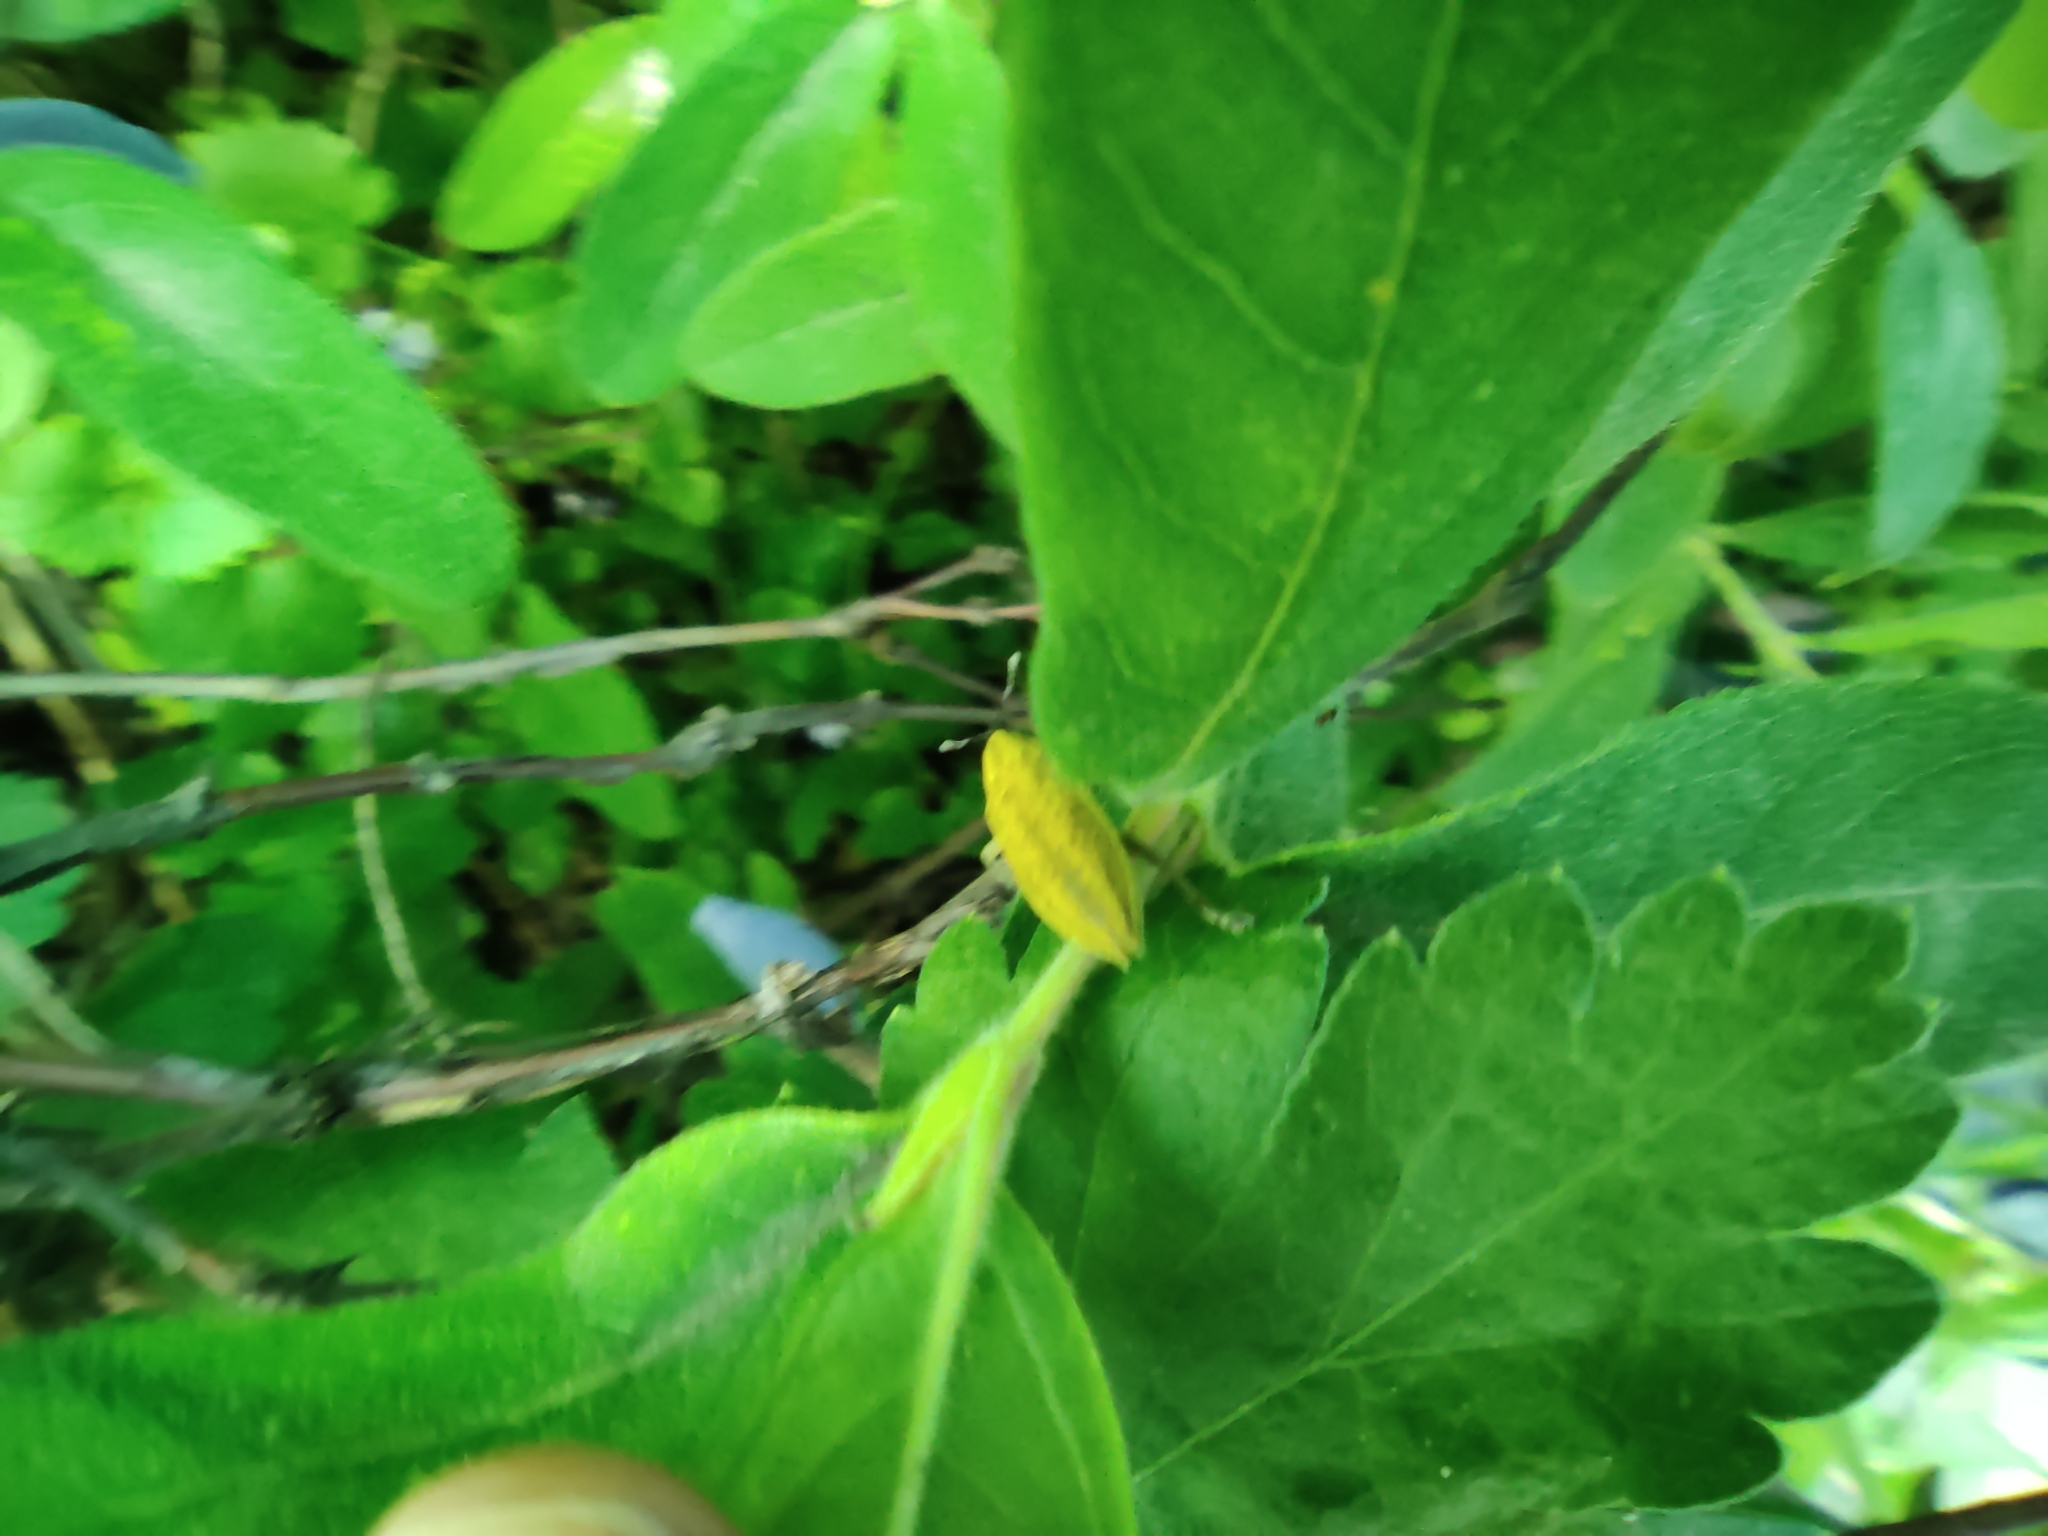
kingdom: Animalia
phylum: Arthropoda
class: Insecta
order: Coleoptera
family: Curculionidae
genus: Lixus
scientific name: Lixus iridis
